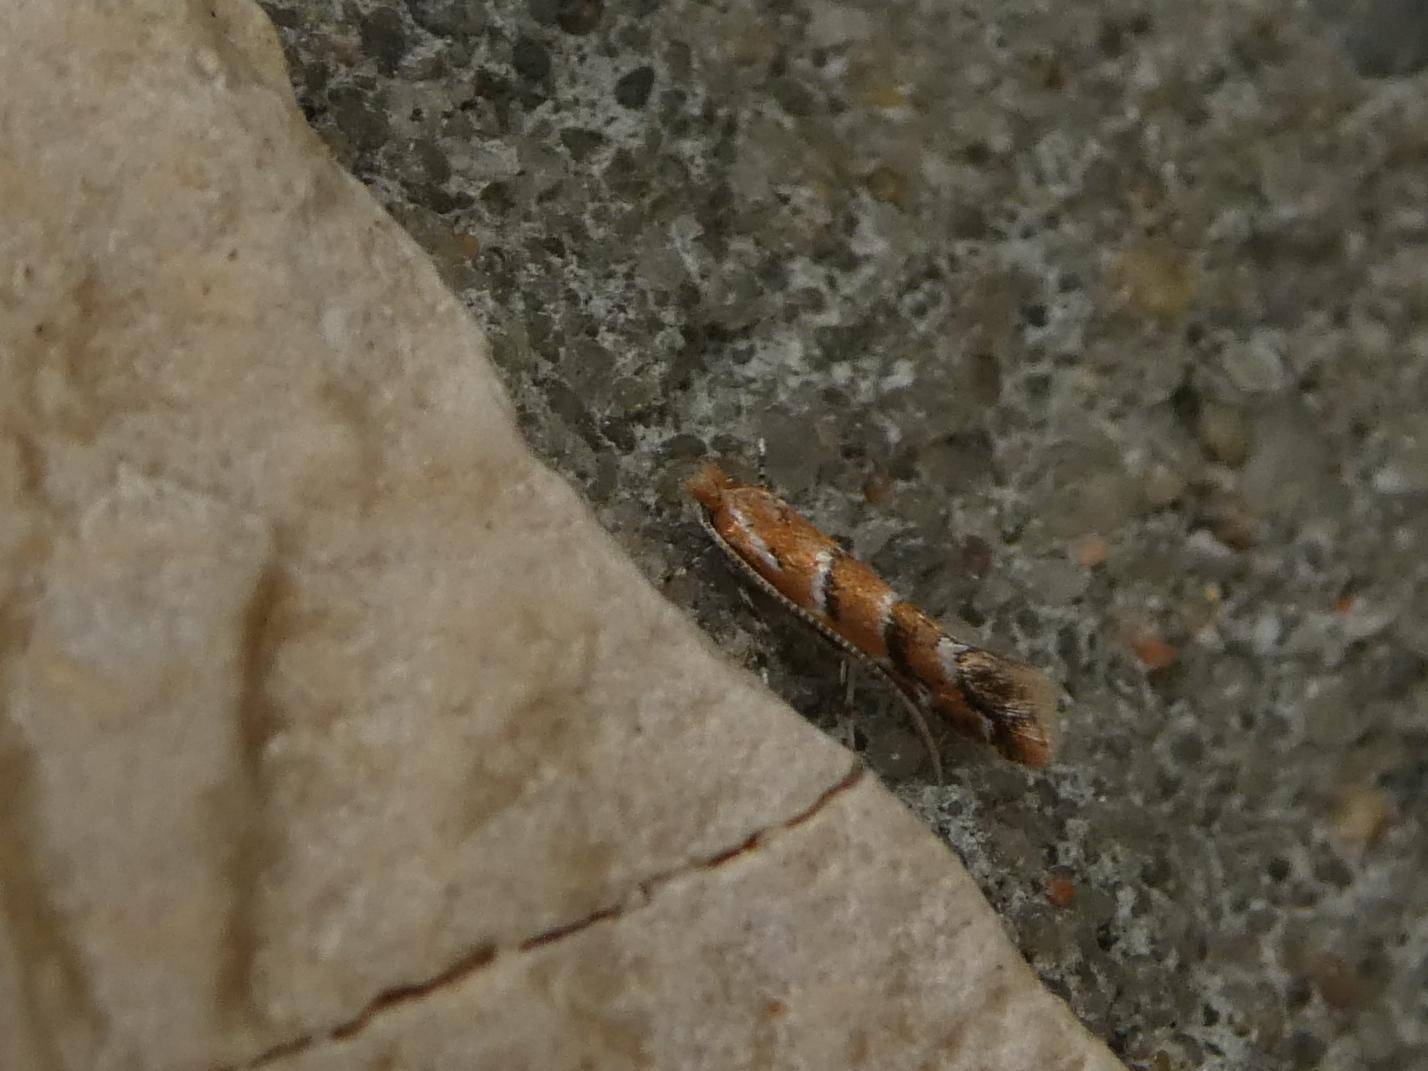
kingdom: Animalia
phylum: Arthropoda
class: Insecta
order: Lepidoptera
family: Gracillariidae
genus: Cameraria
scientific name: Cameraria ohridella
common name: Horse-chestnut leaf-miner
